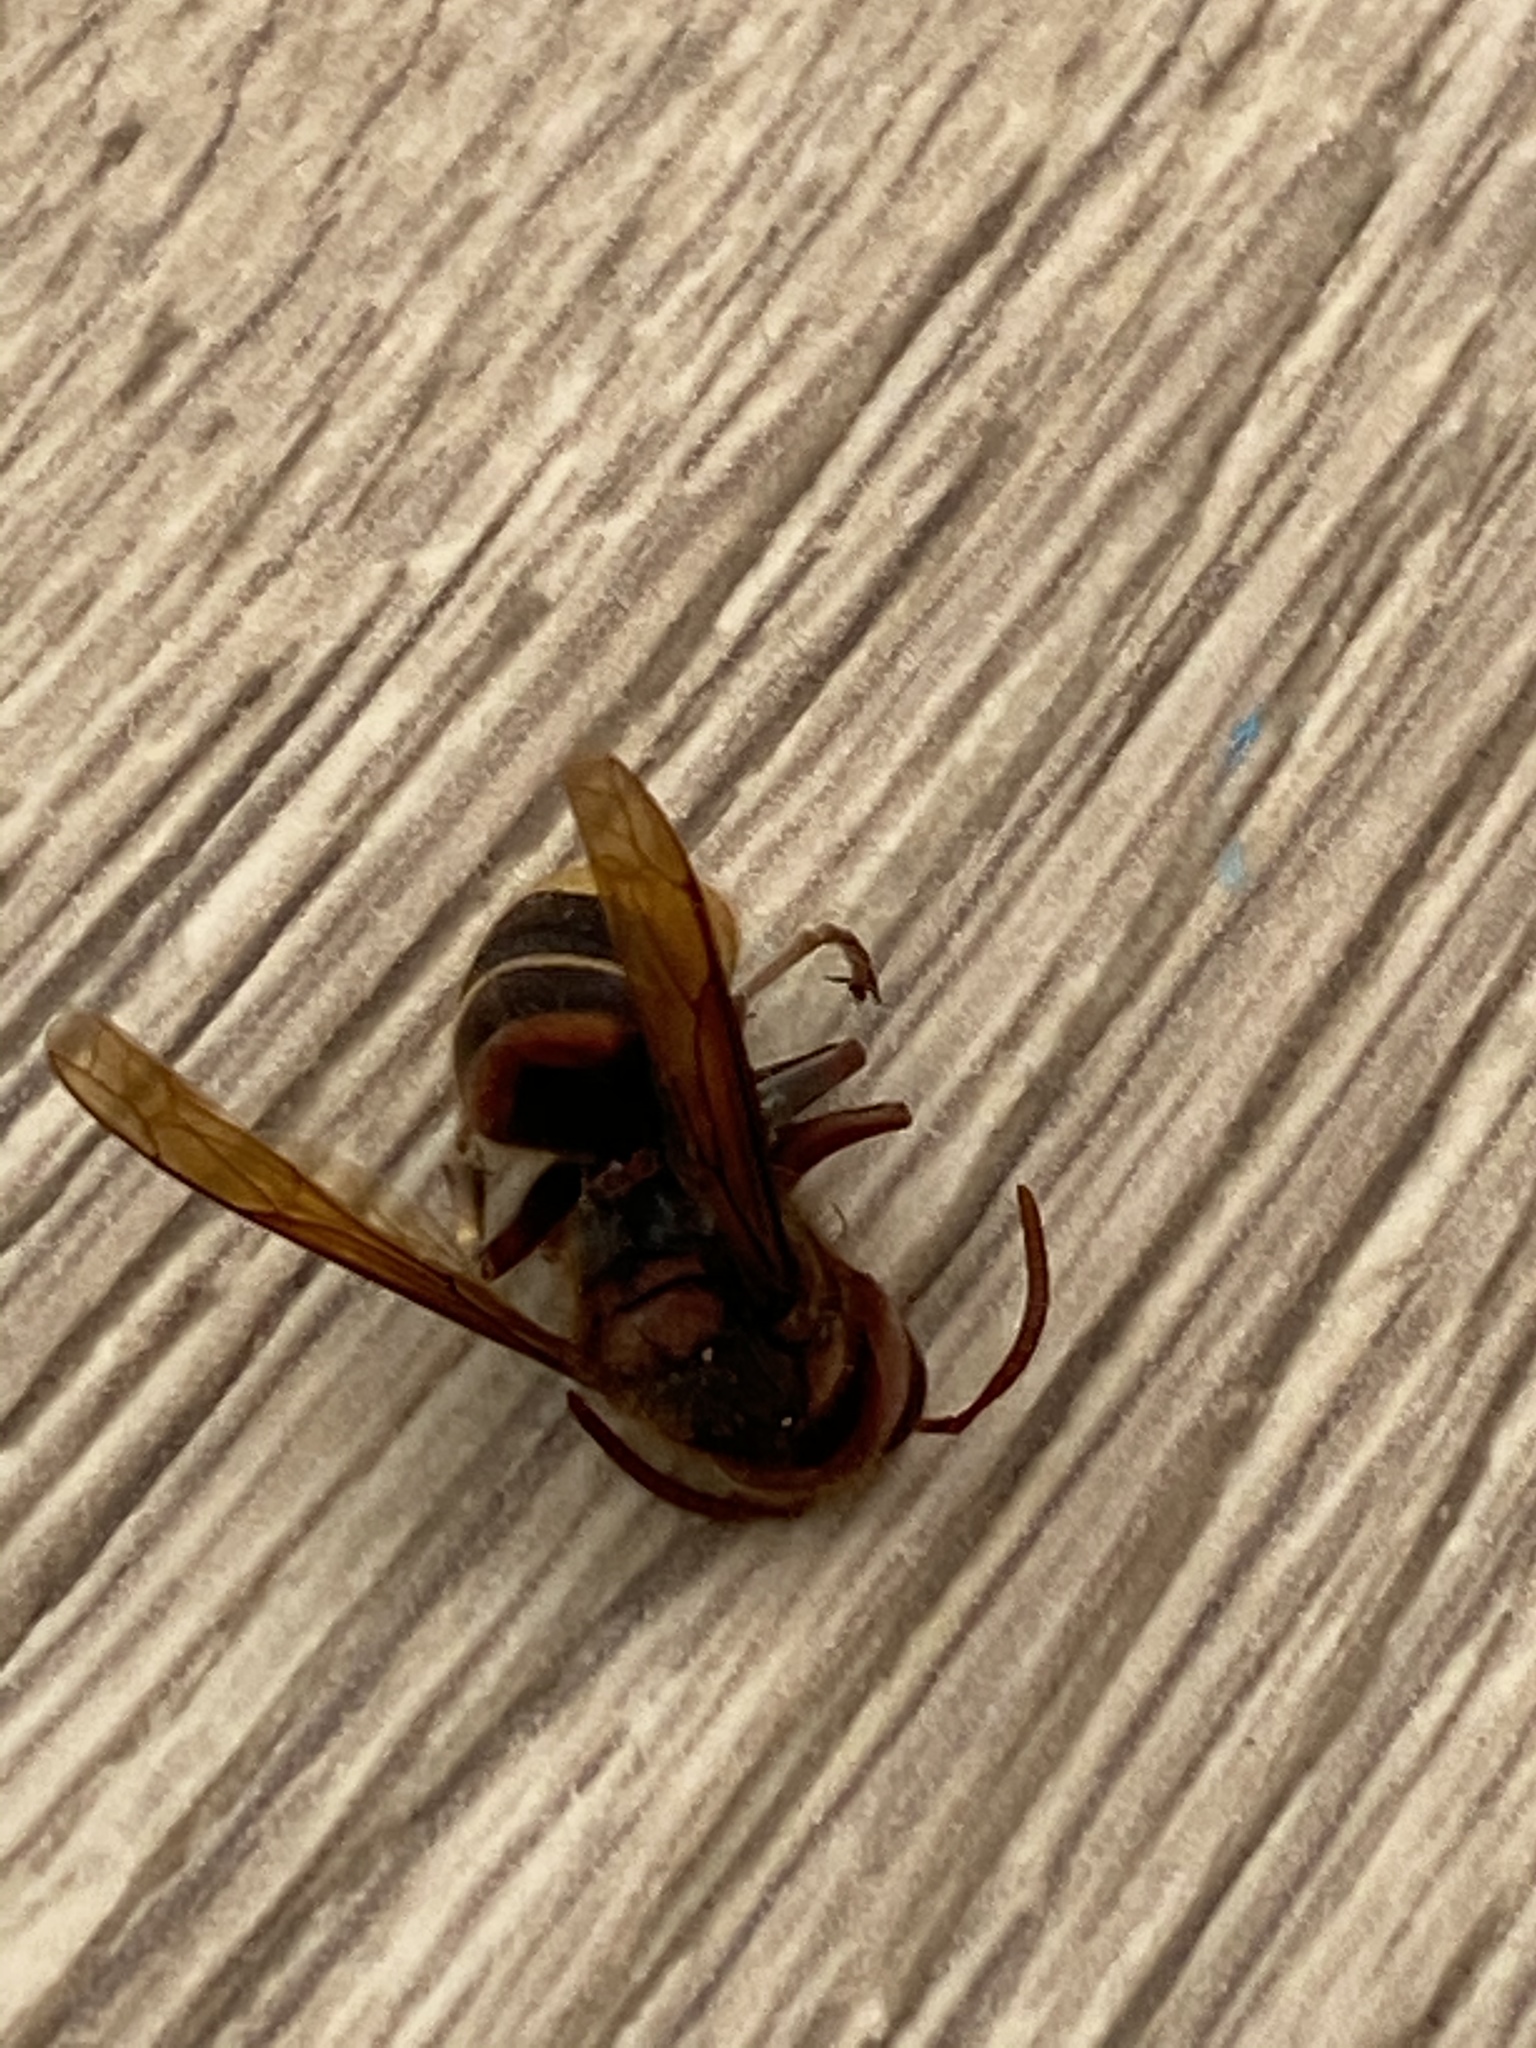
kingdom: Animalia
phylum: Arthropoda
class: Insecta
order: Hymenoptera
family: Vespidae
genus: Vespa
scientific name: Vespa crabro
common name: Hornet
